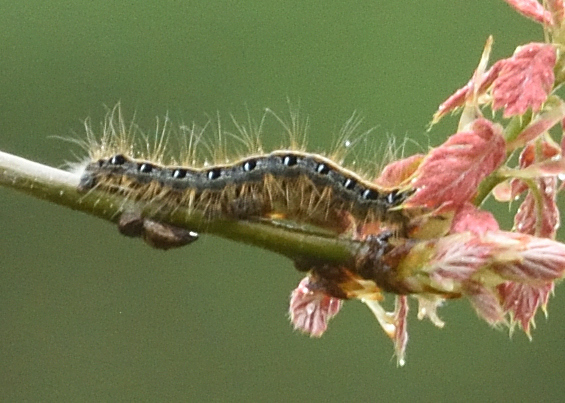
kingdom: Animalia
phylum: Arthropoda
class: Insecta
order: Lepidoptera
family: Lasiocampidae
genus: Malacosoma
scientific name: Malacosoma americana
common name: Eastern tent caterpillar moth
